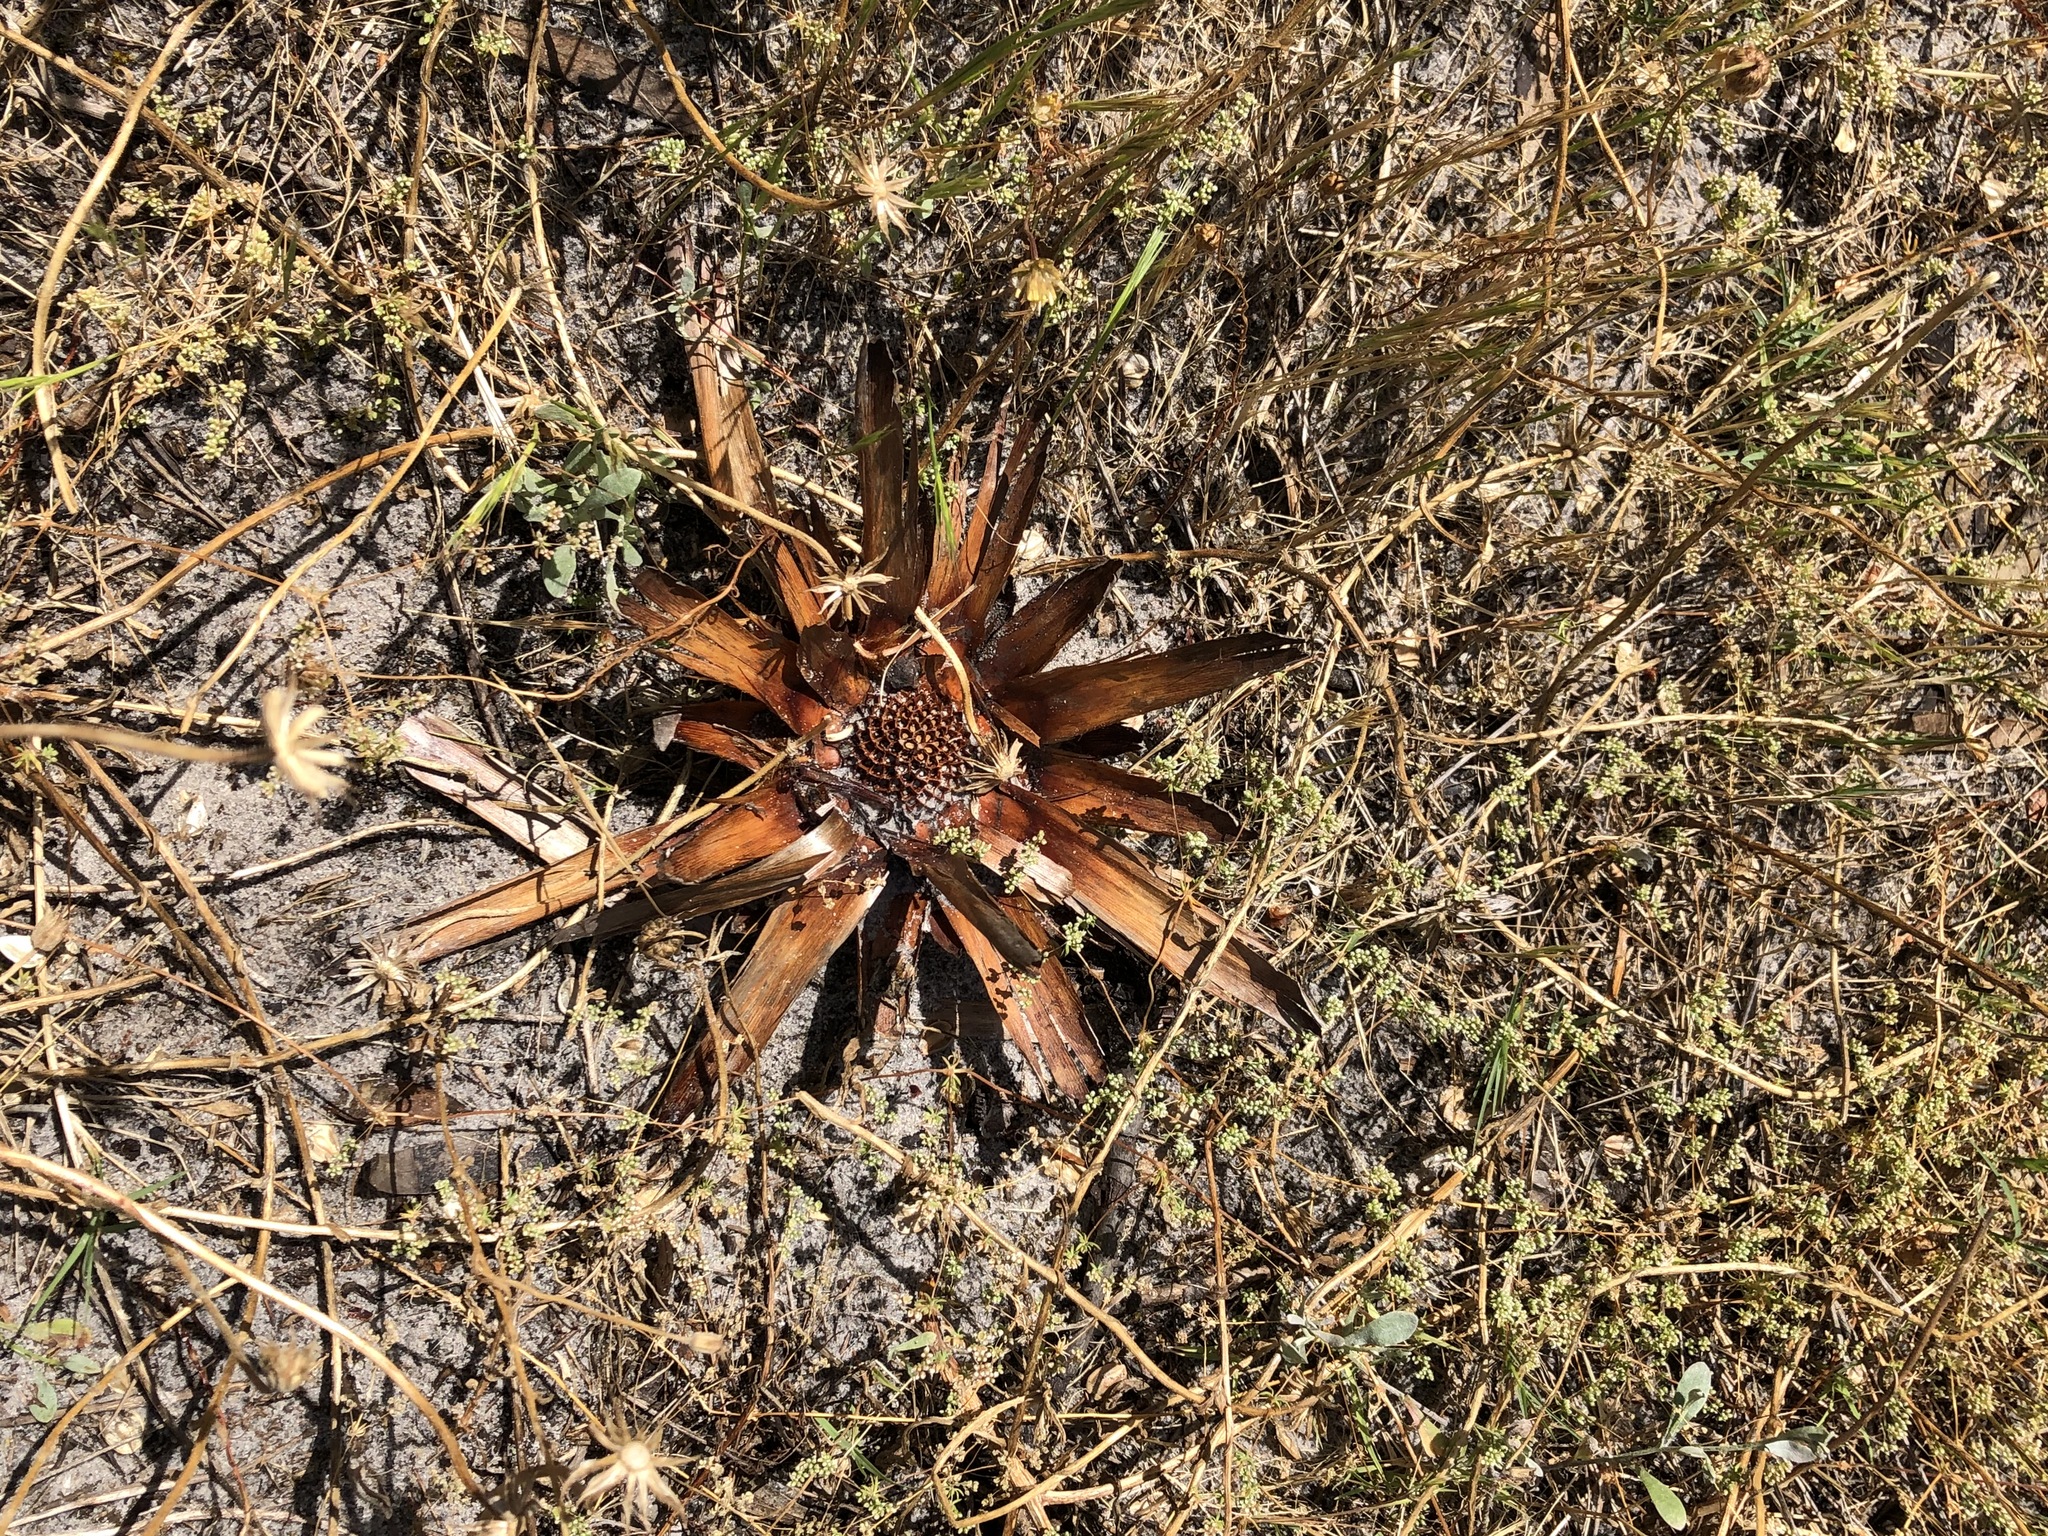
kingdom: Plantae
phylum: Tracheophyta
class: Magnoliopsida
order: Proteales
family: Proteaceae
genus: Protea
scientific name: Protea repens
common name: Sugarbush
